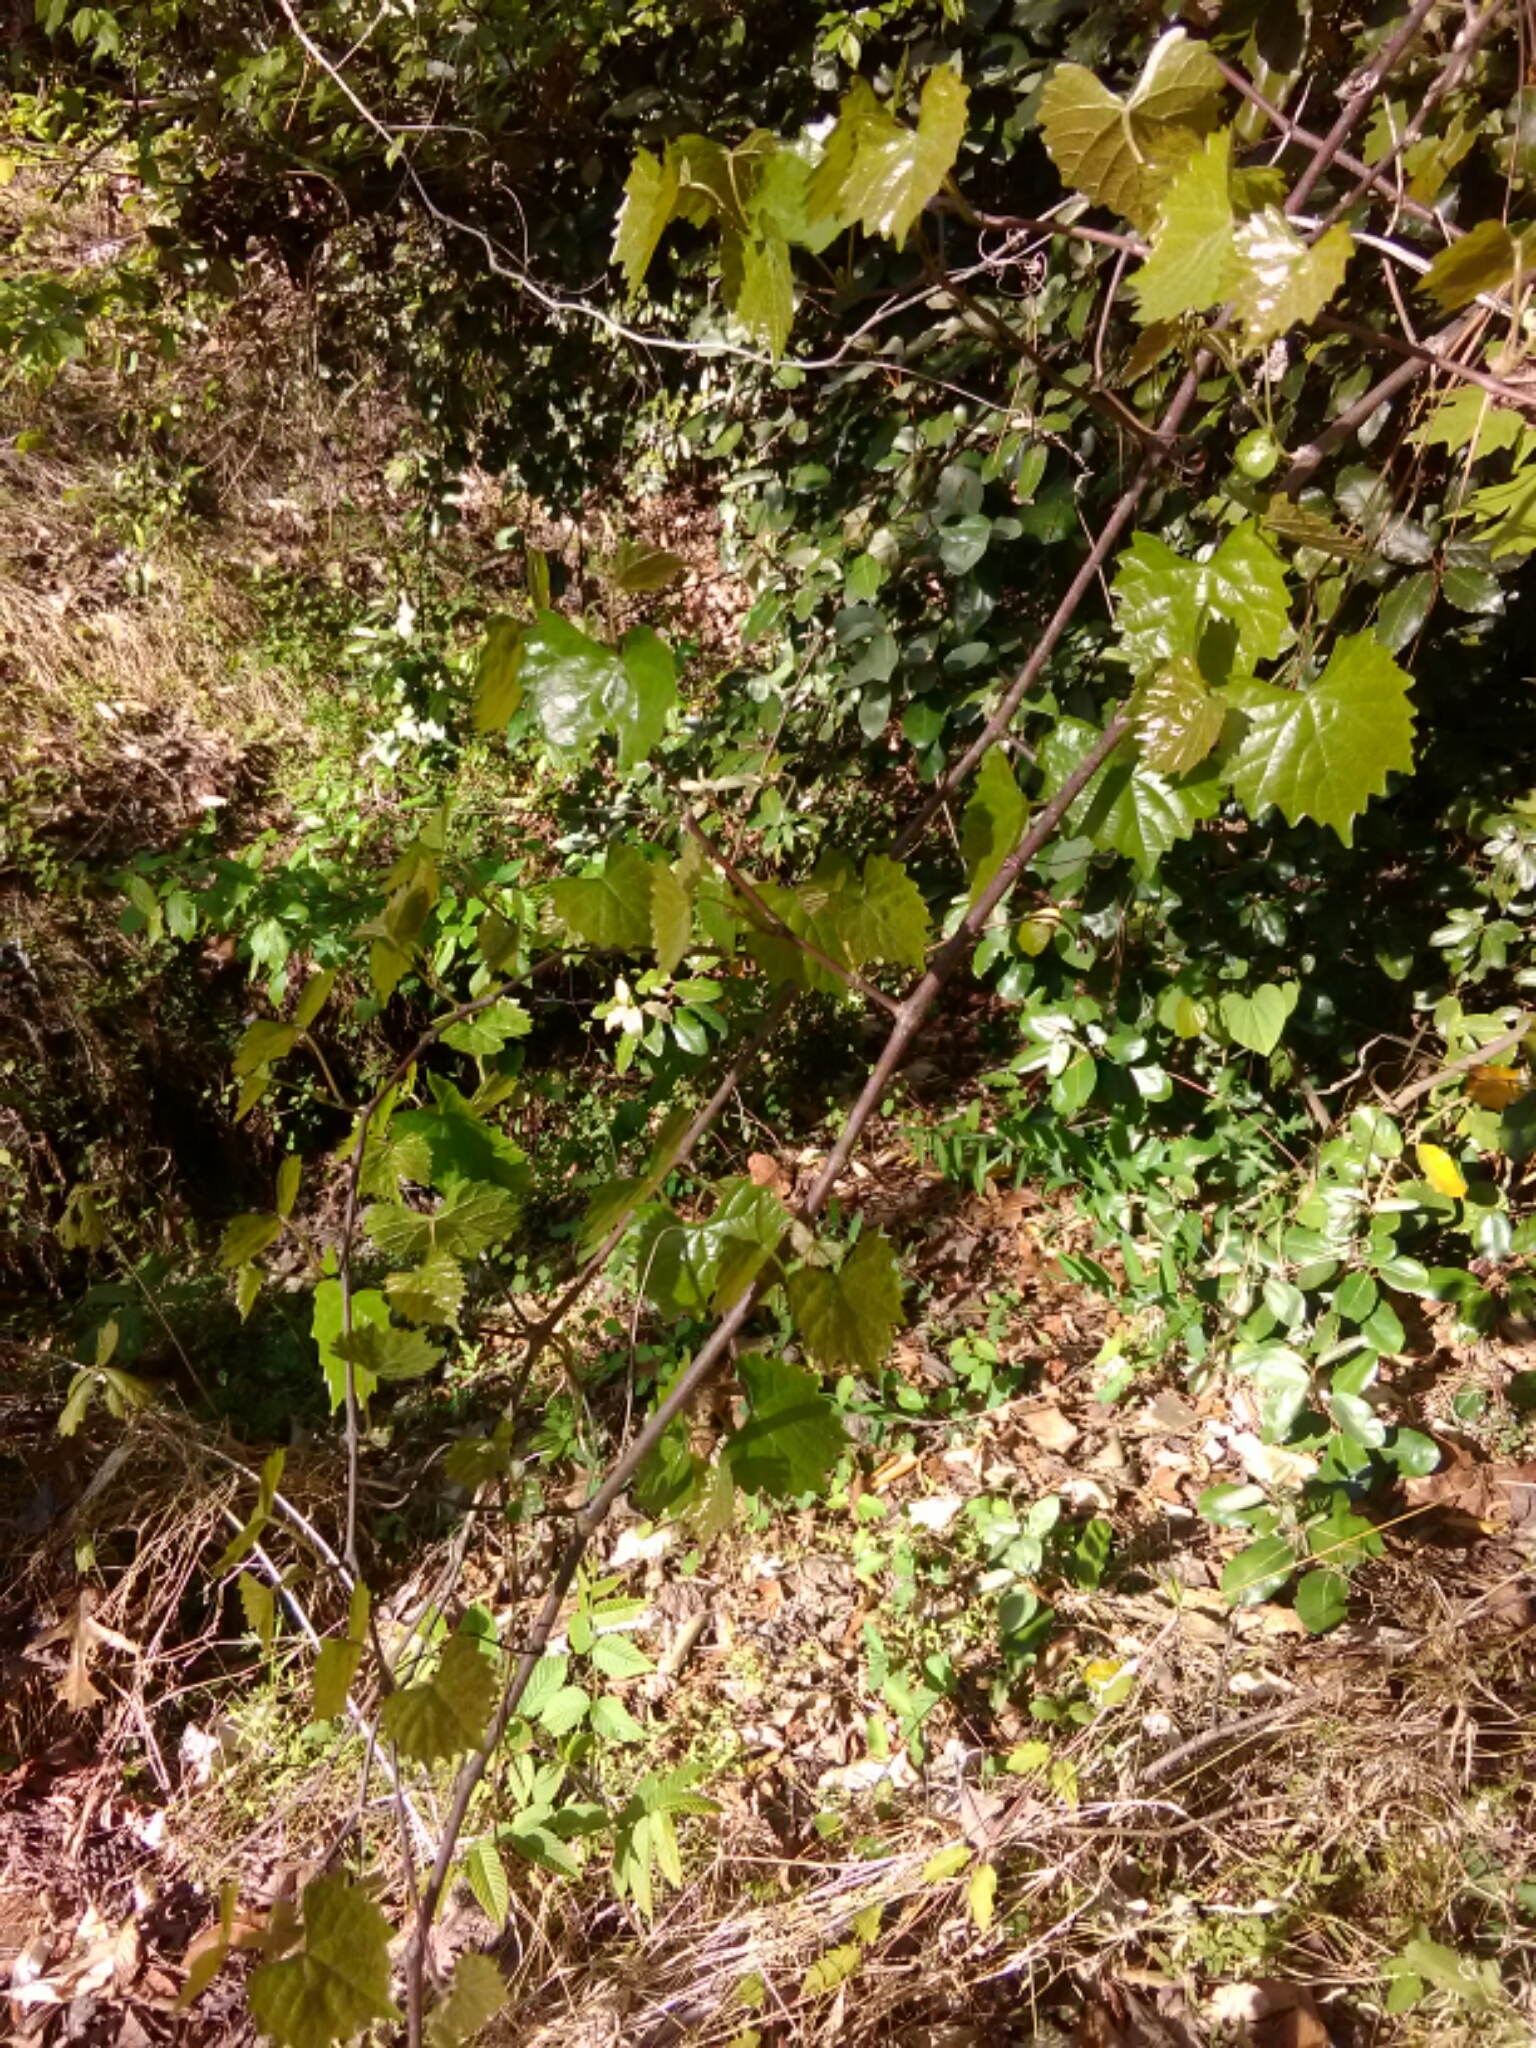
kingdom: Plantae
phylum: Tracheophyta
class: Magnoliopsida
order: Vitales
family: Vitaceae
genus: Vitis
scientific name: Vitis rotundifolia
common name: Muscadine grape
